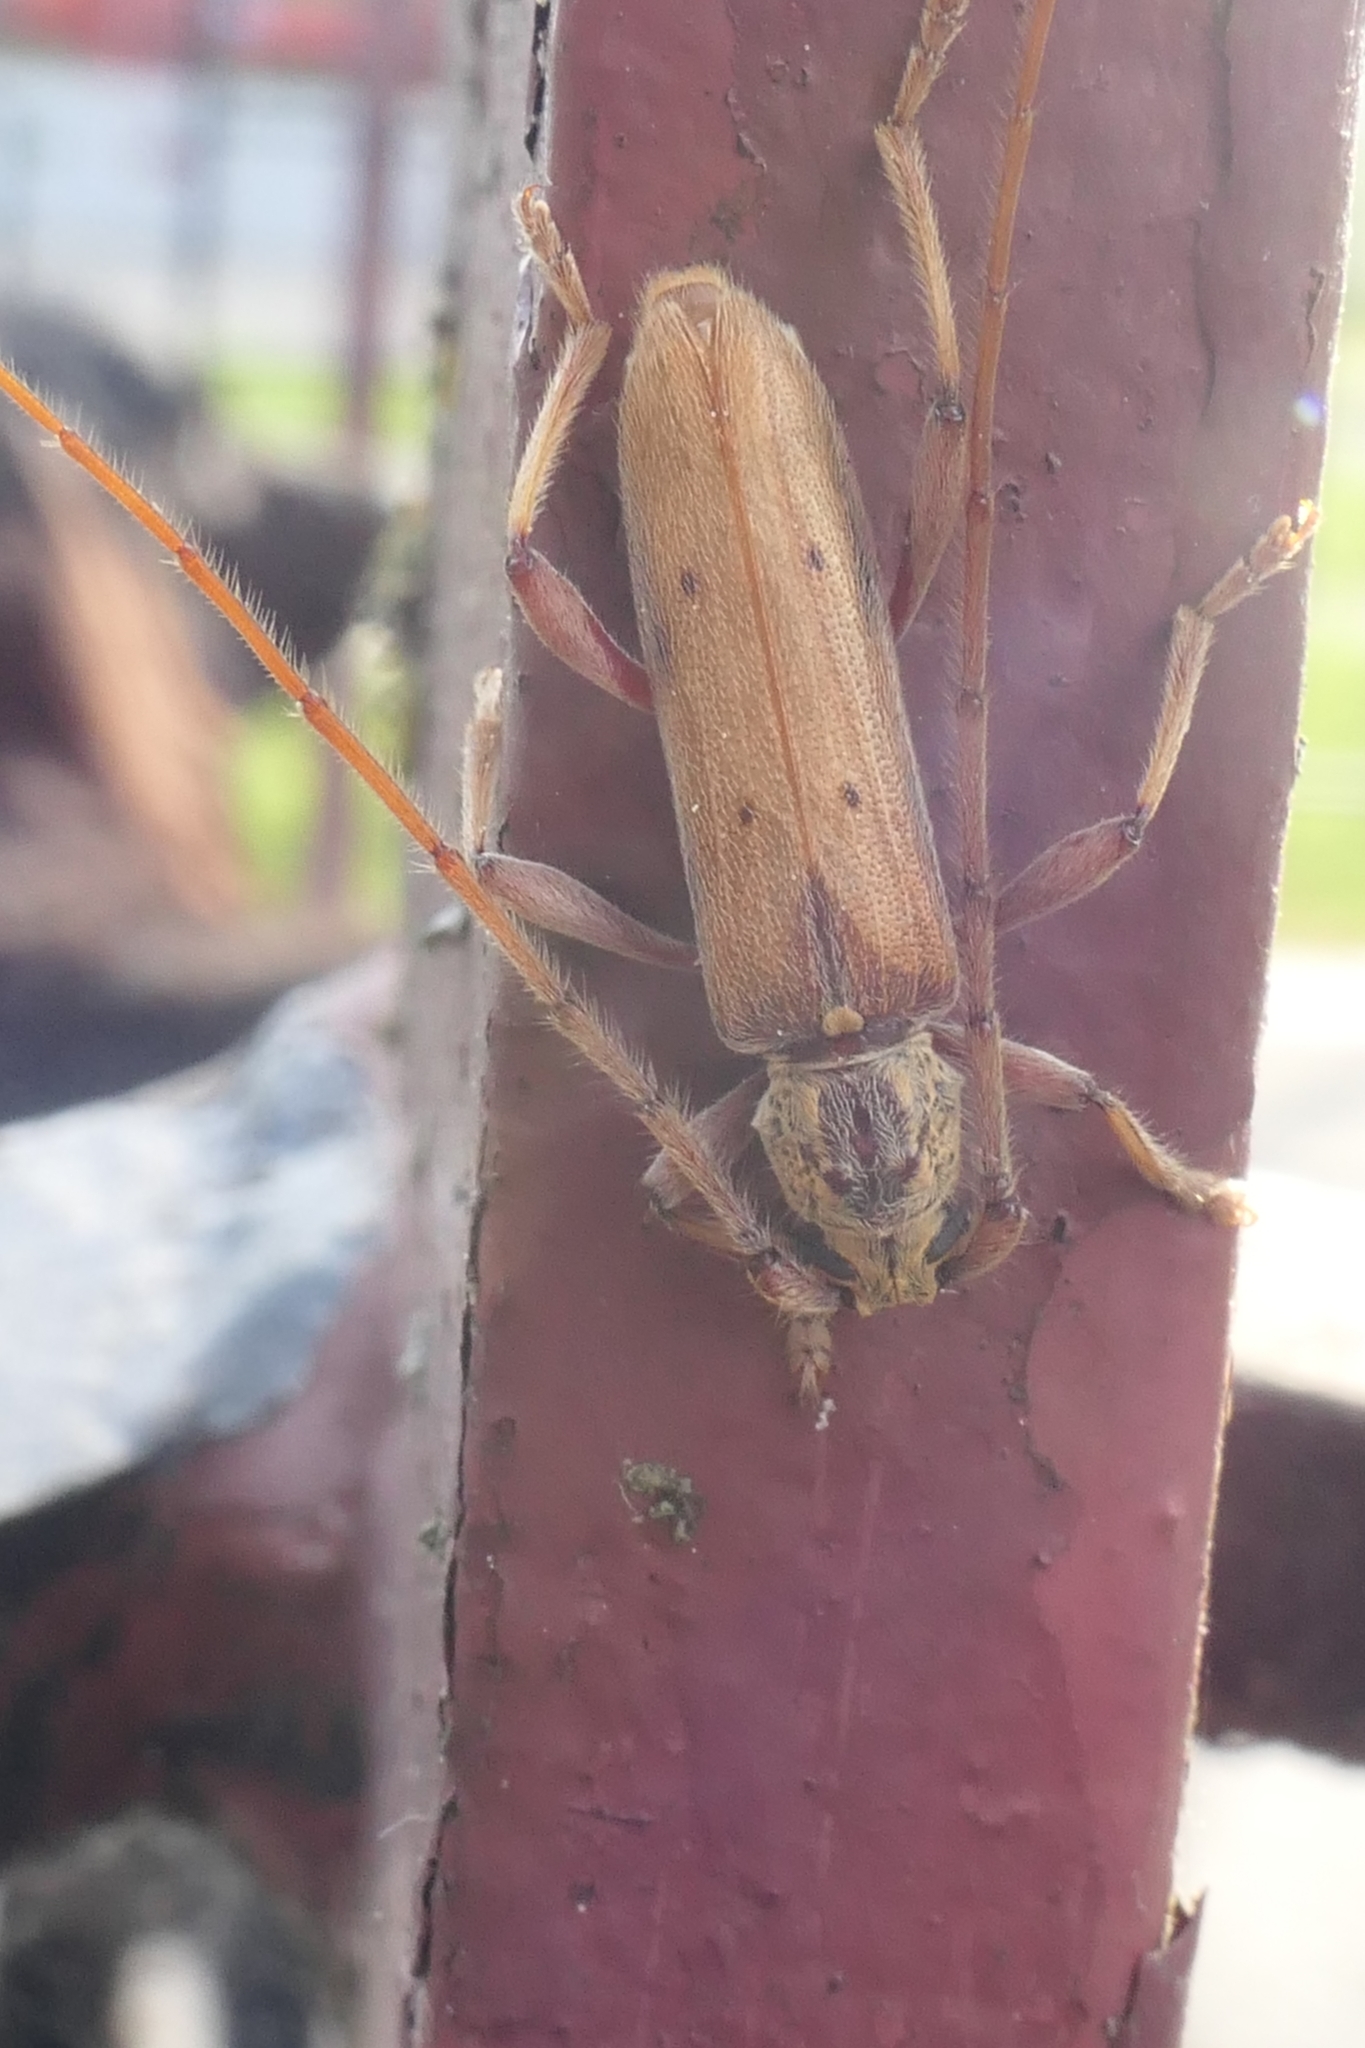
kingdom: Animalia
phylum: Arthropoda
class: Insecta
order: Coleoptera
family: Cerambycidae
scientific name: Cerambycidae
